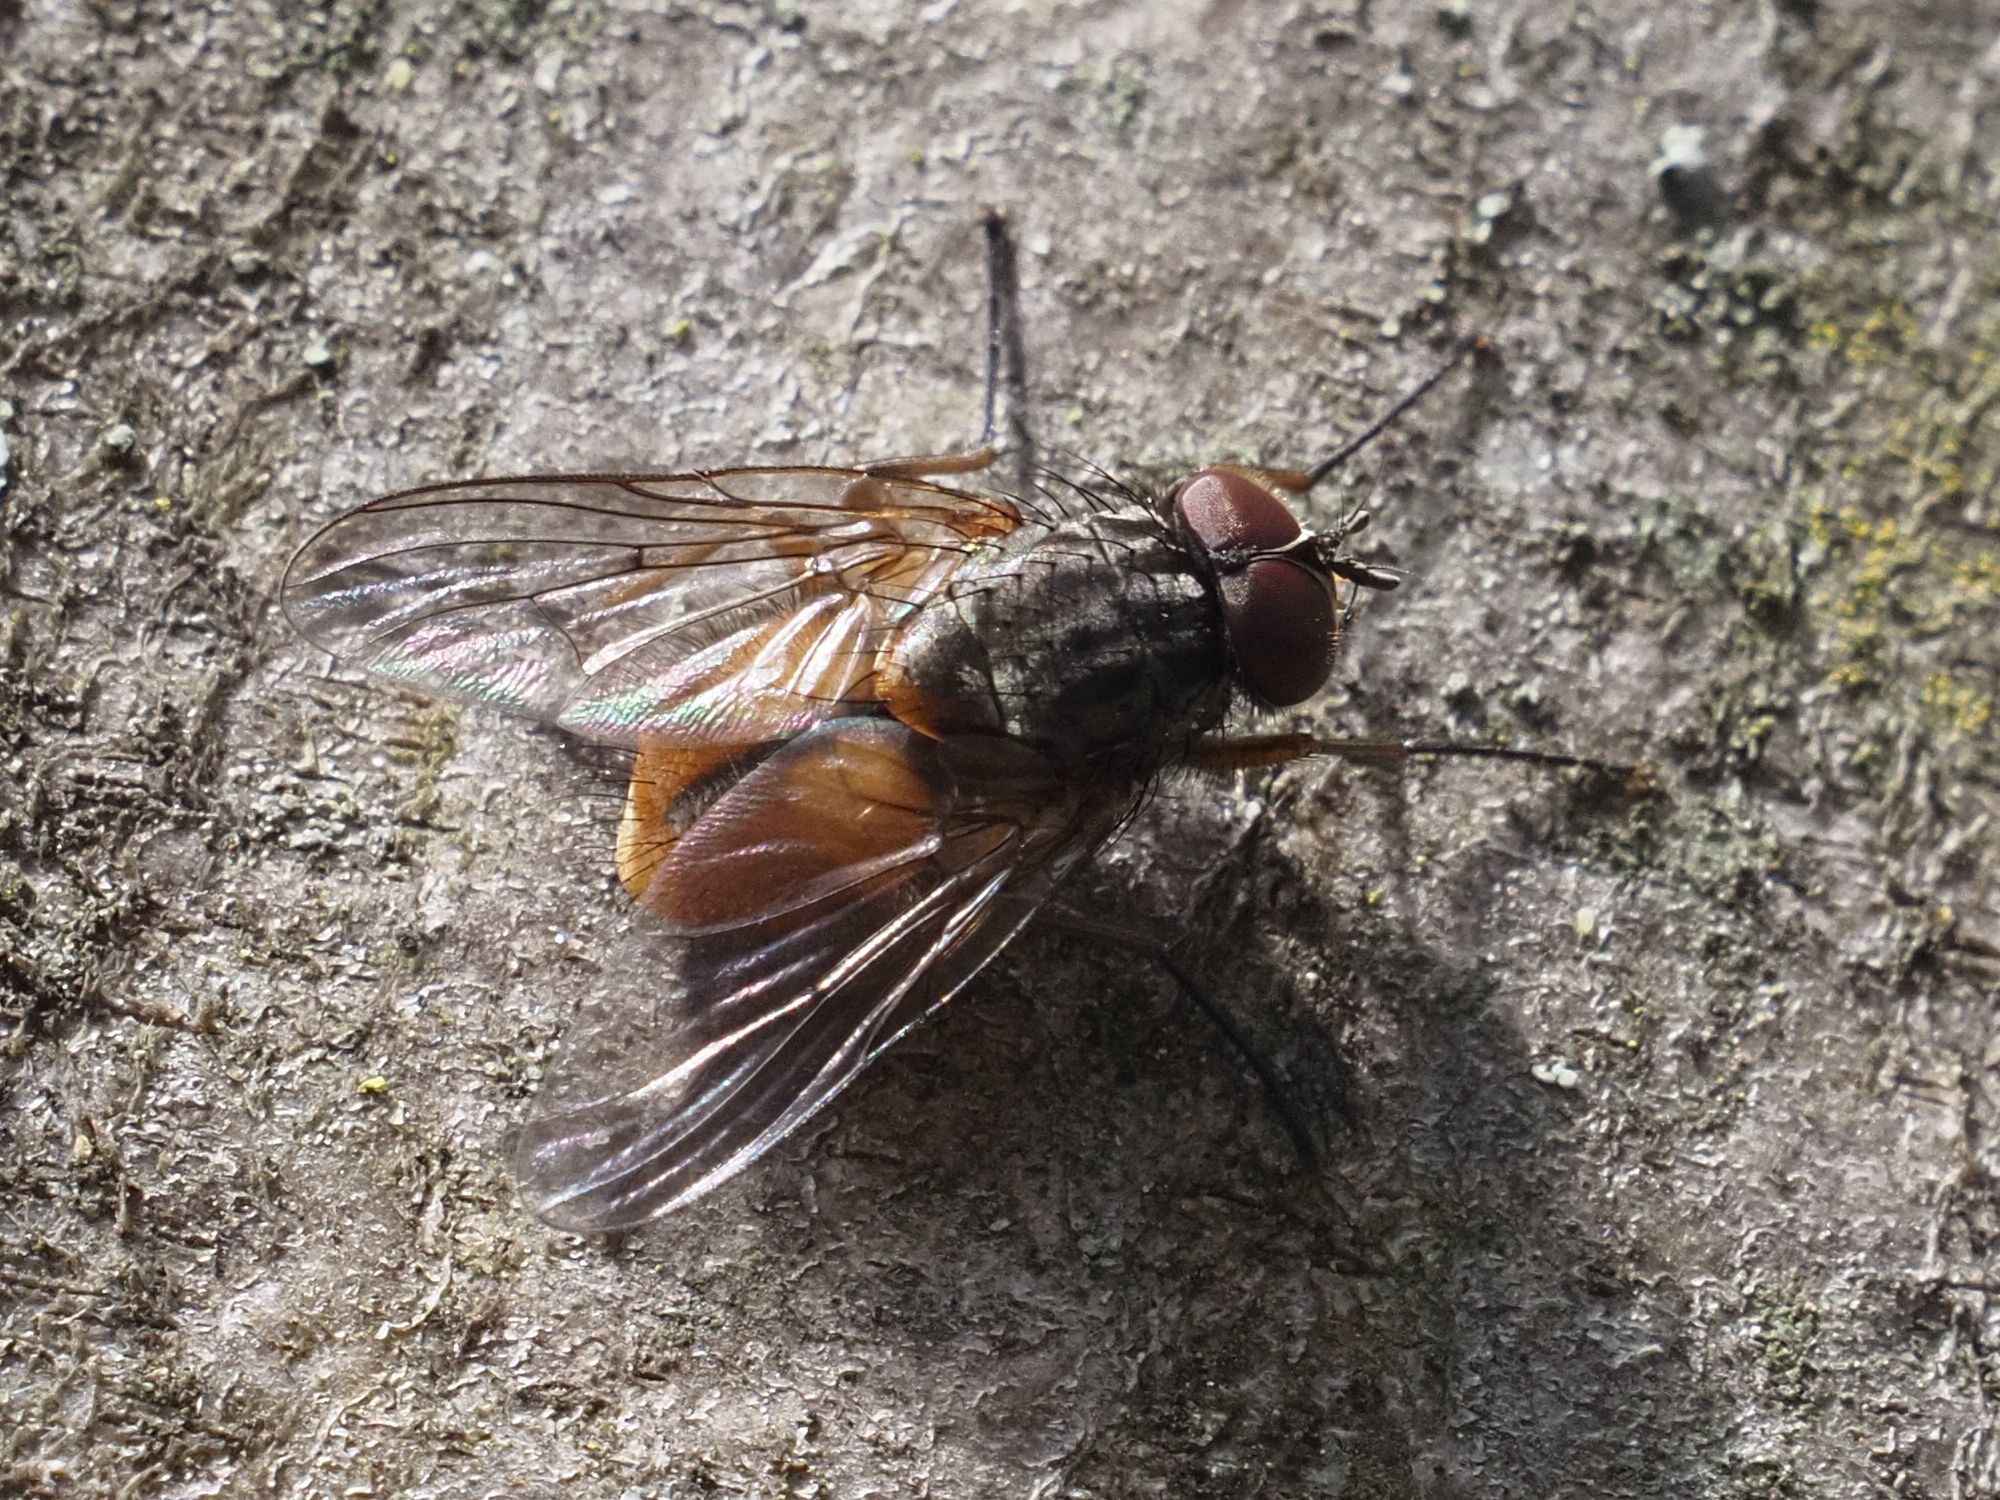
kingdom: Animalia
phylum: Arthropoda
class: Insecta
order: Diptera
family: Muscidae
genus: Phaonia
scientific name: Phaonia subventa
